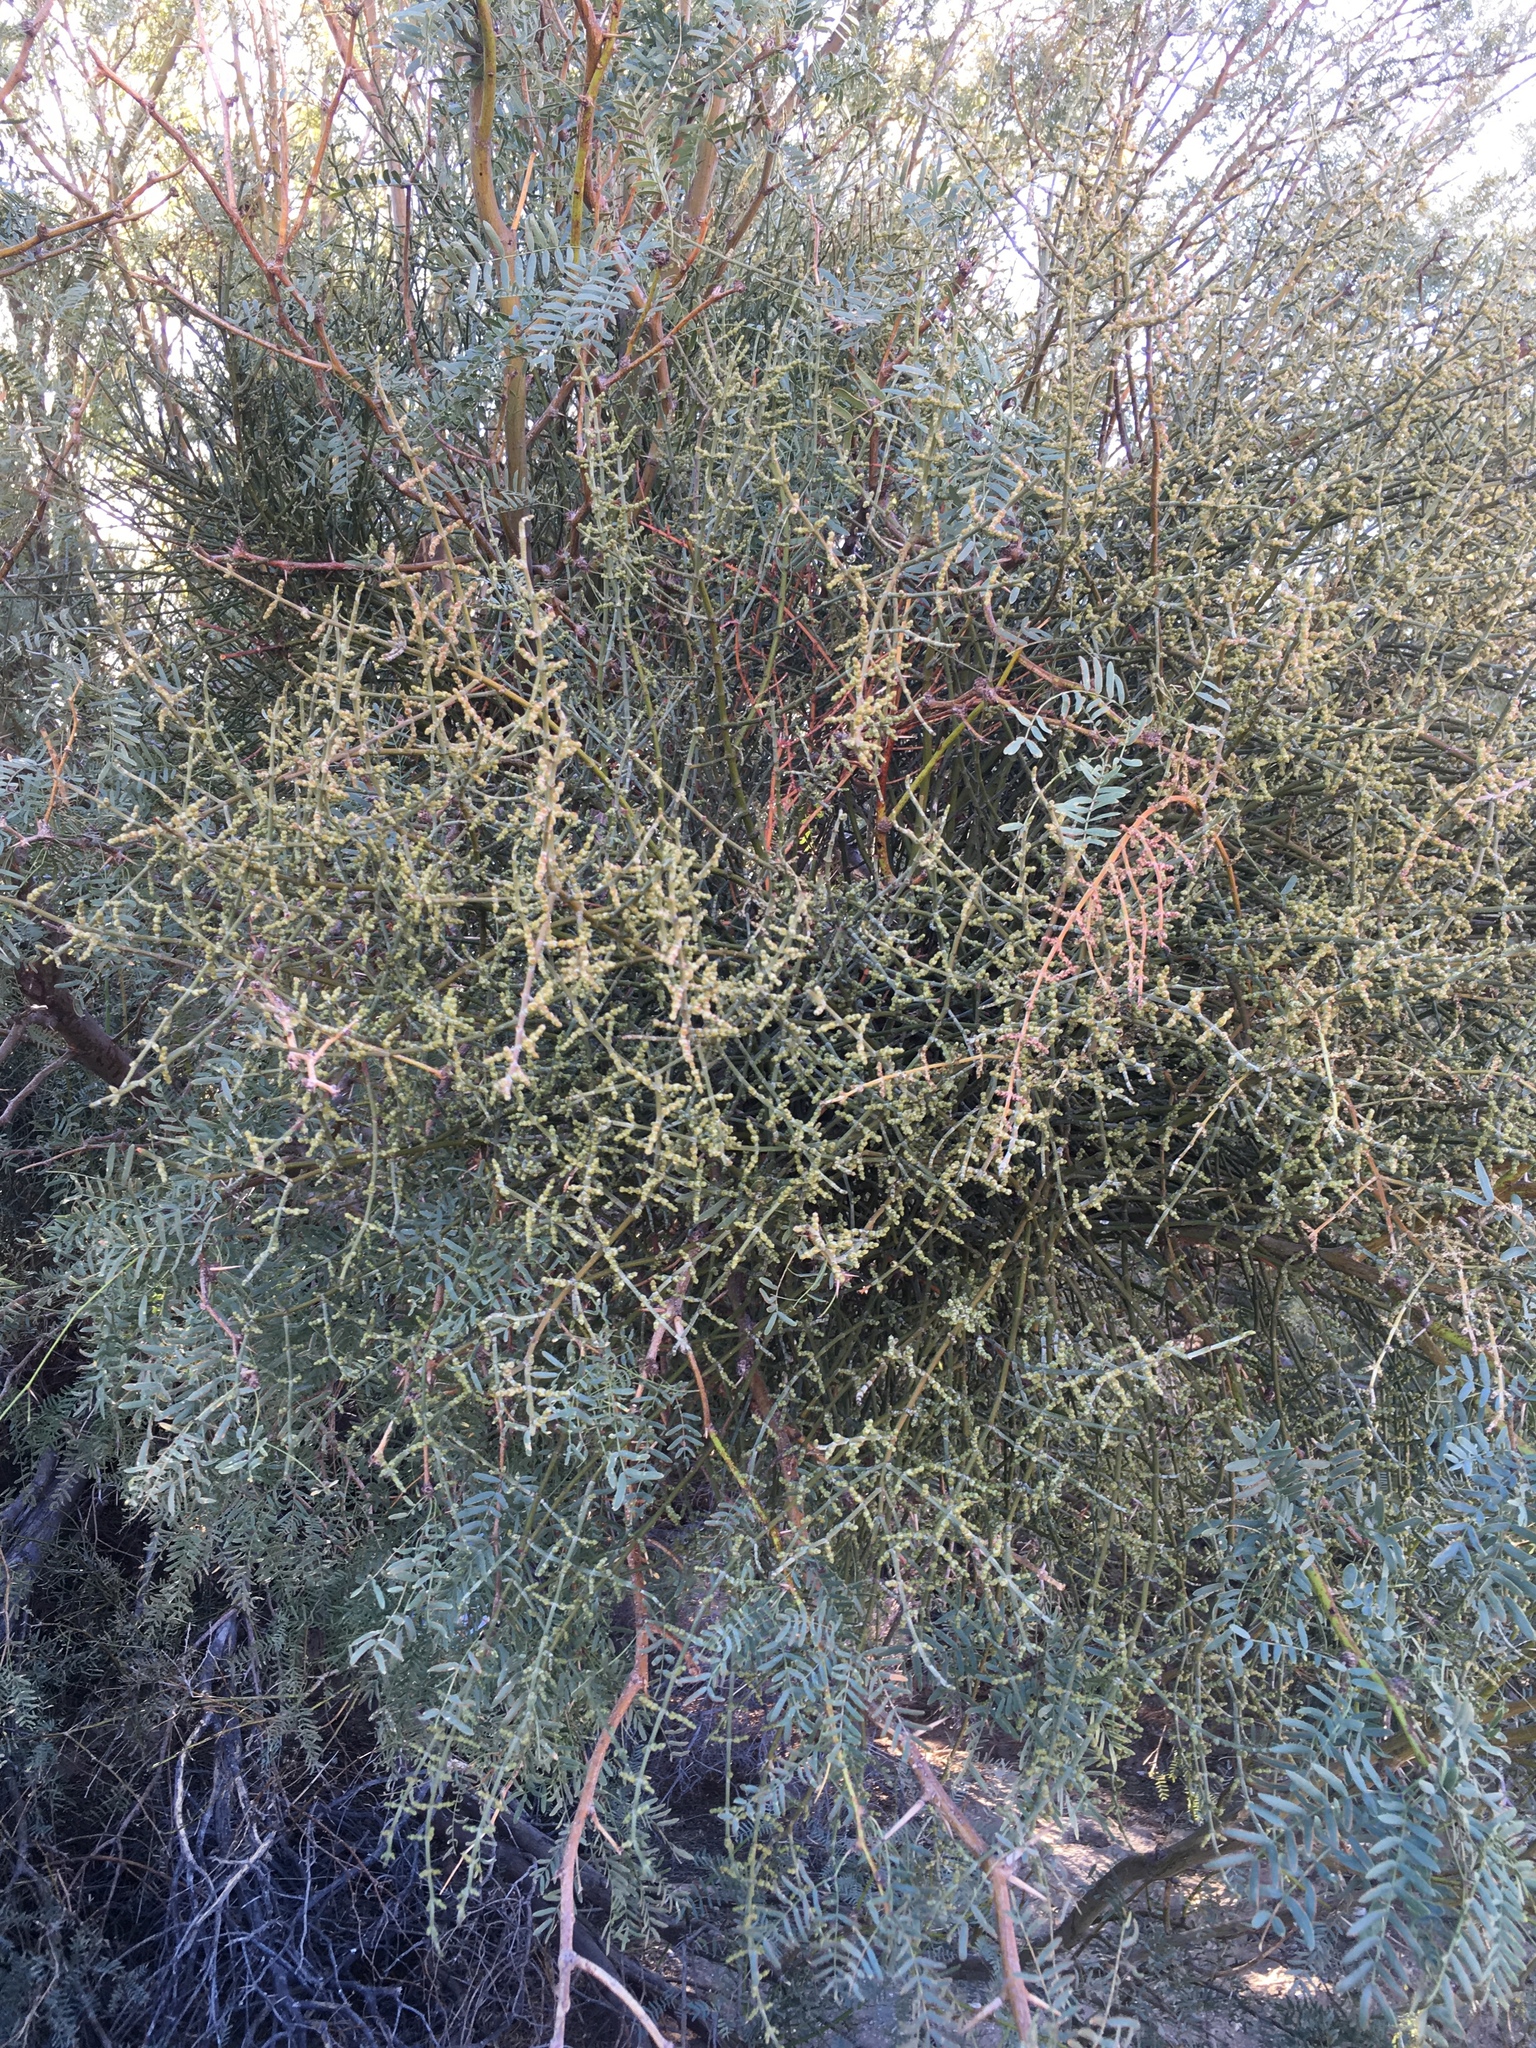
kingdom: Plantae
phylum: Tracheophyta
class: Magnoliopsida
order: Santalales
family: Viscaceae
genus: Phoradendron
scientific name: Phoradendron californicum
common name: Acacia mistletoe
